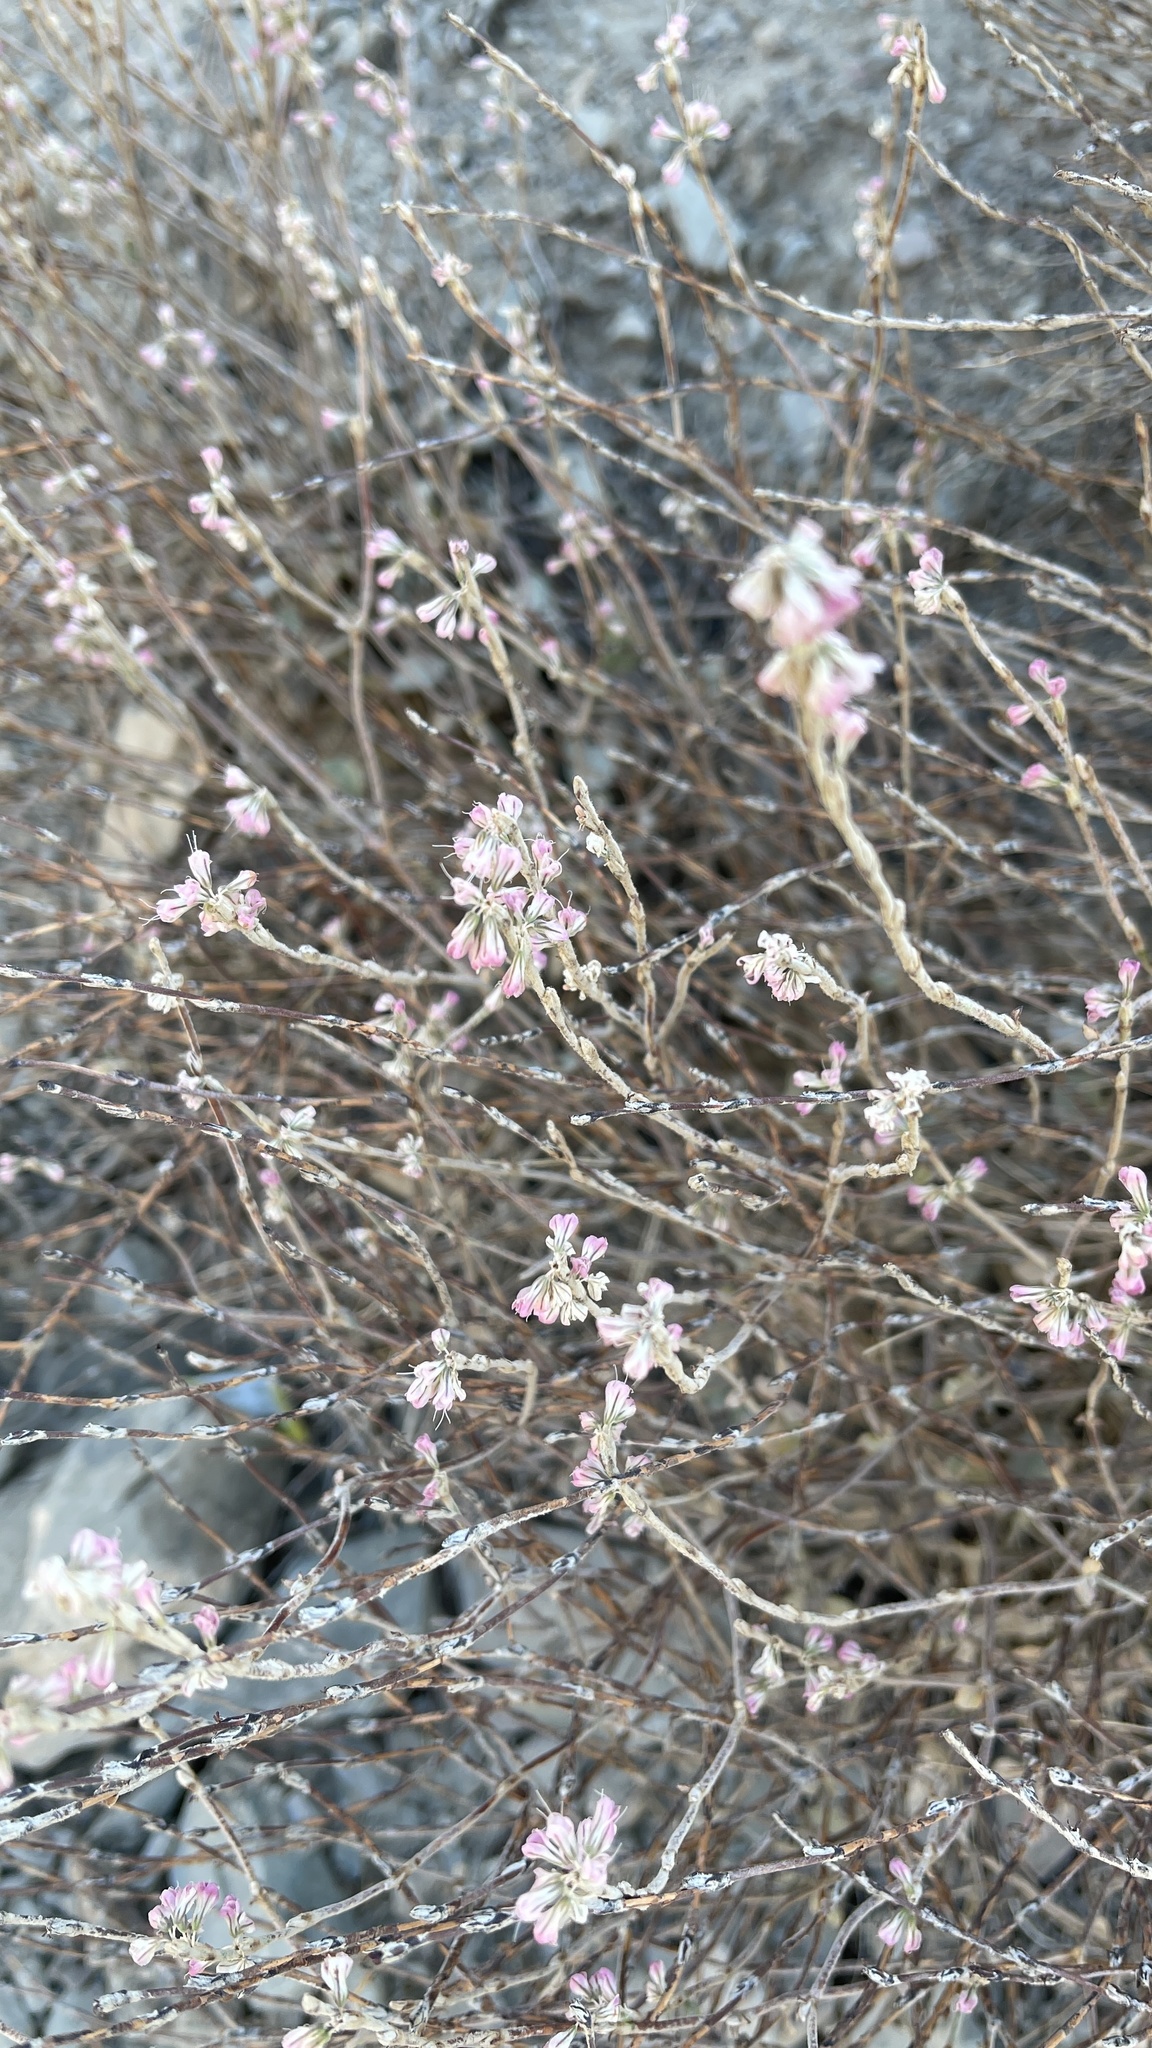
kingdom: Plantae
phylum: Tracheophyta
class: Magnoliopsida
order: Caryophyllales
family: Polygonaceae
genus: Eriogonum
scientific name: Eriogonum panamintense
